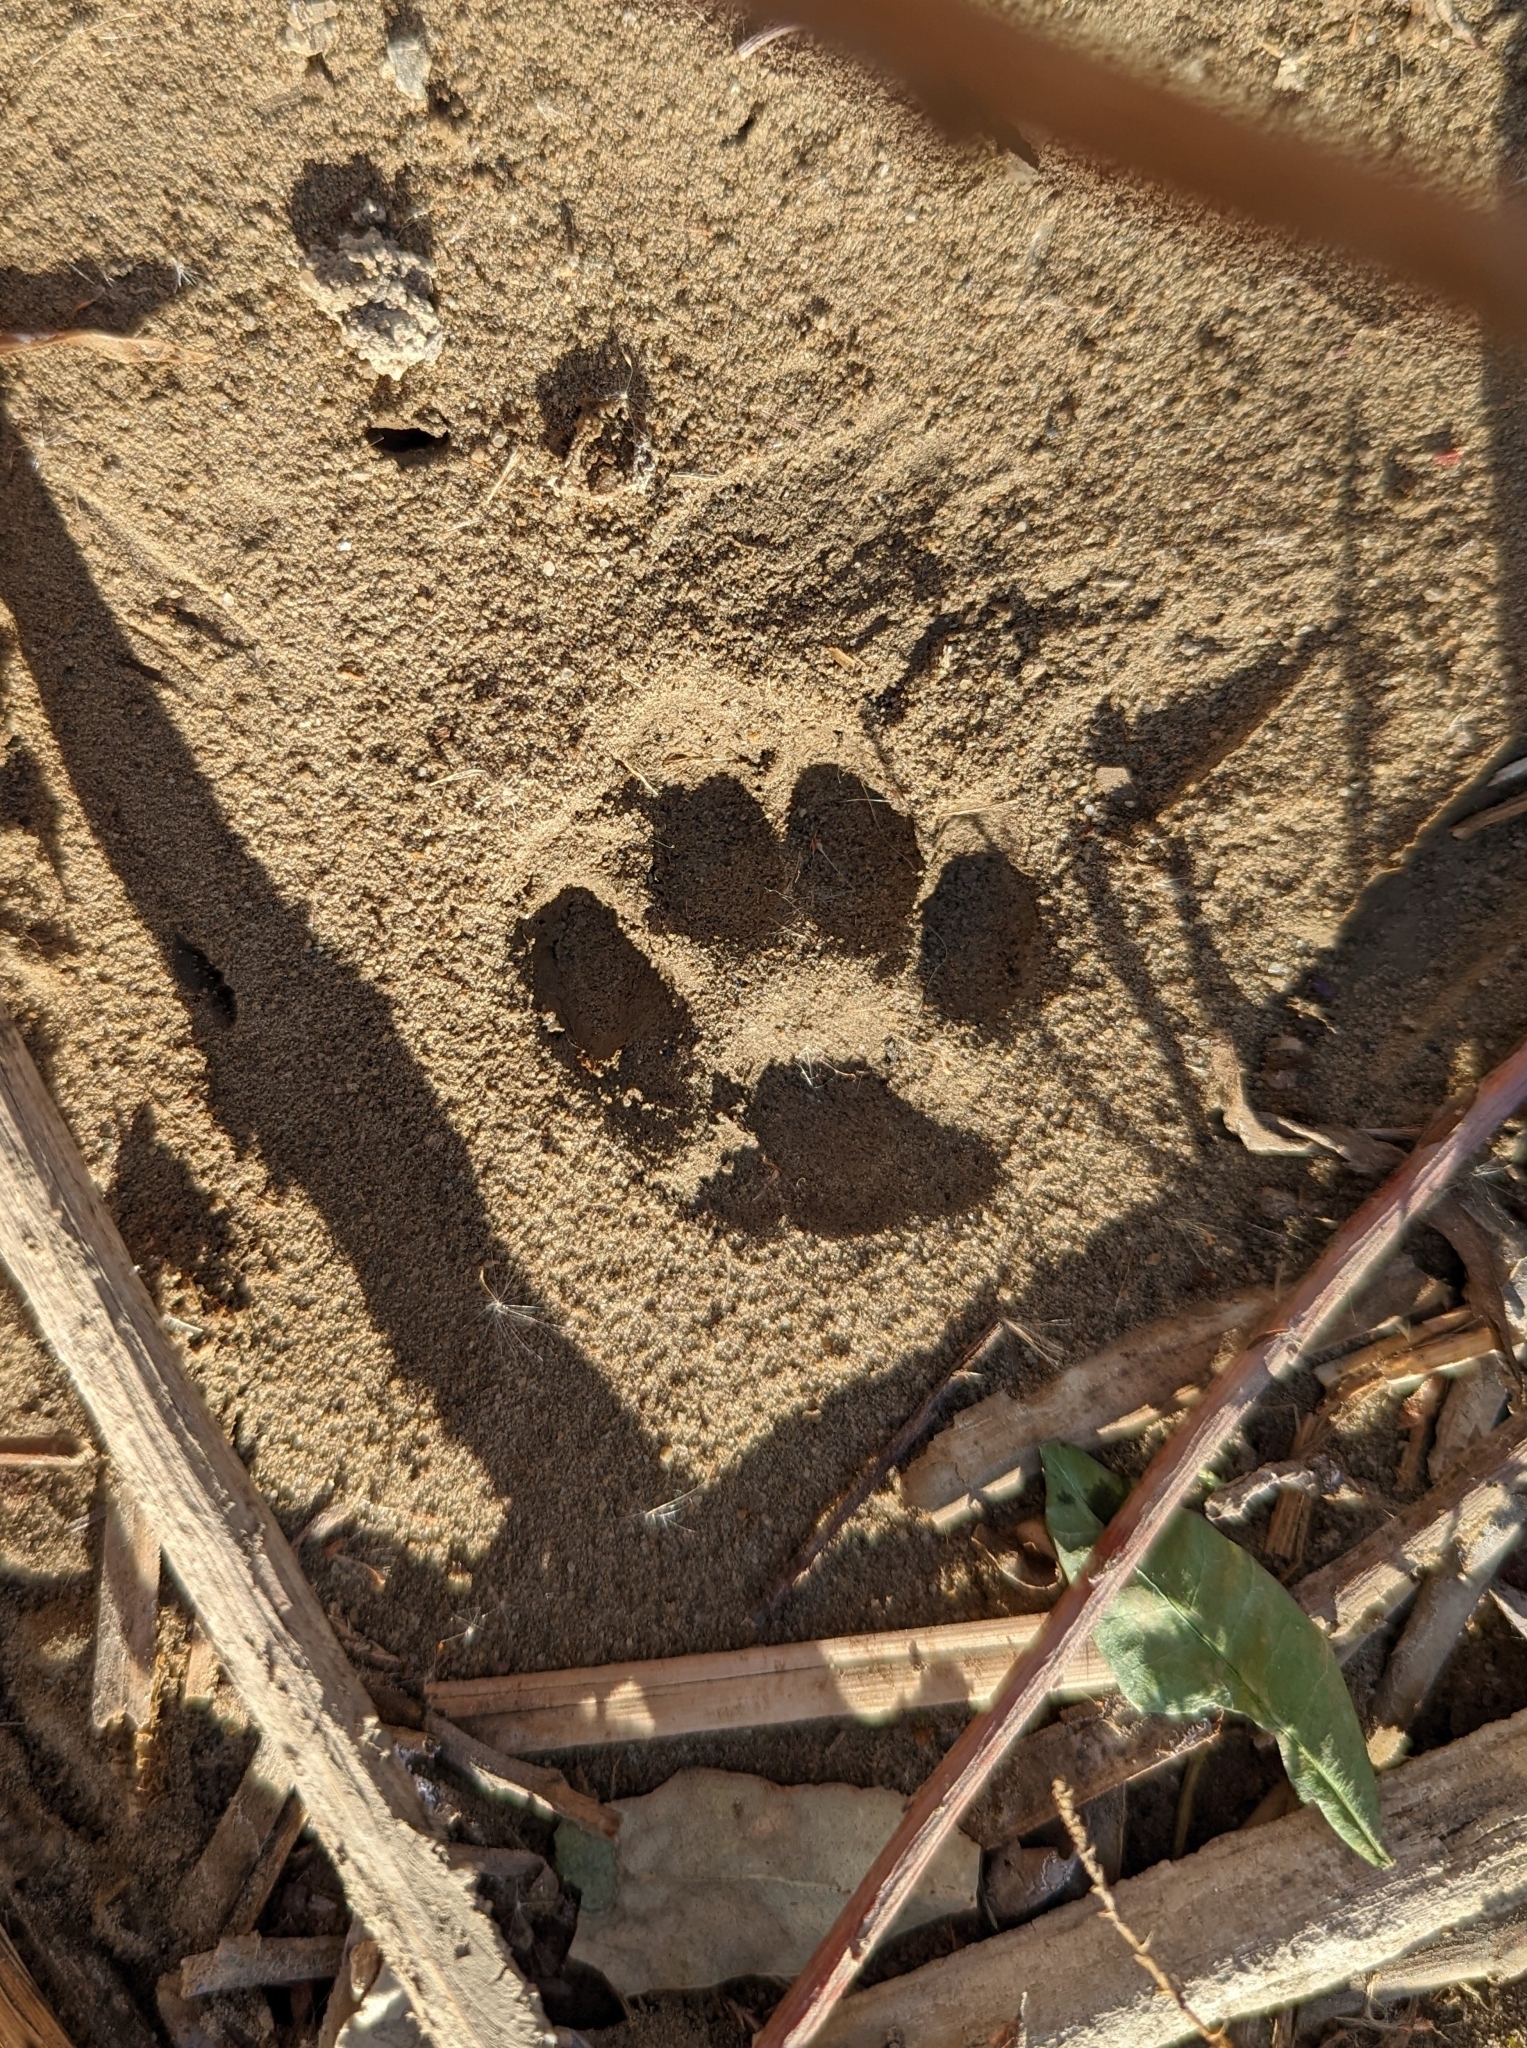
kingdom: Animalia
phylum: Chordata
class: Mammalia
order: Carnivora
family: Felidae
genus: Lynx
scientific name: Lynx rufus
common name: Bobcat
